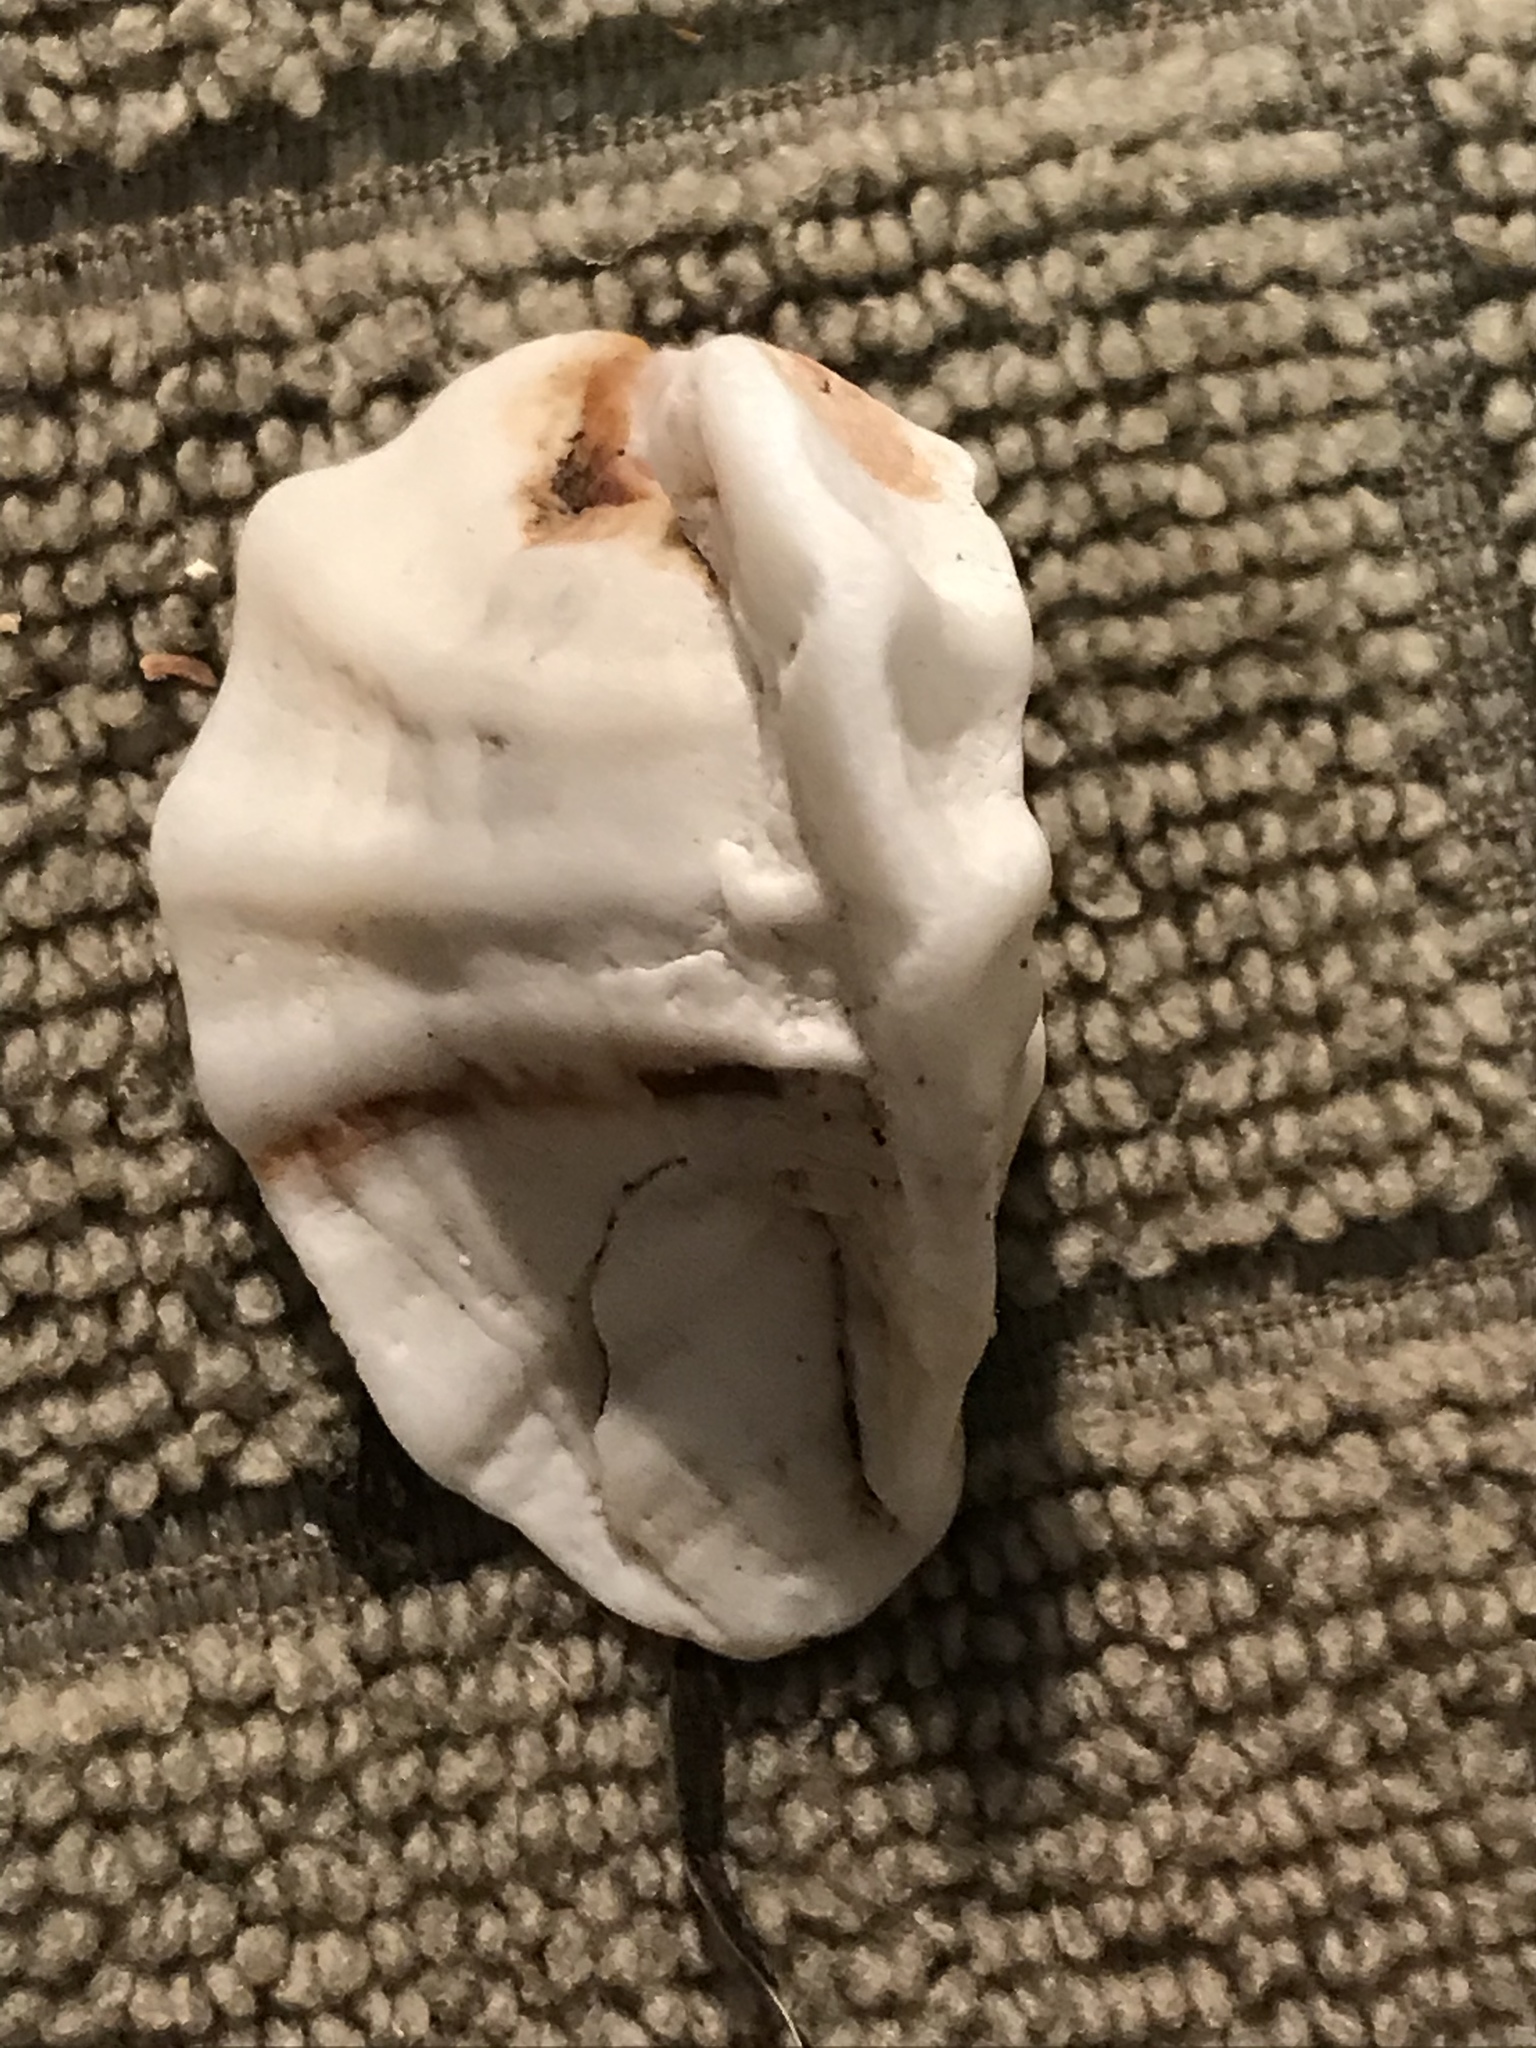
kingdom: Animalia
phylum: Mollusca
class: Gastropoda
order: Neogastropoda
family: Muricidae
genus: Ceratostoma
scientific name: Ceratostoma foliatum
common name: Foliate thorn purpura
